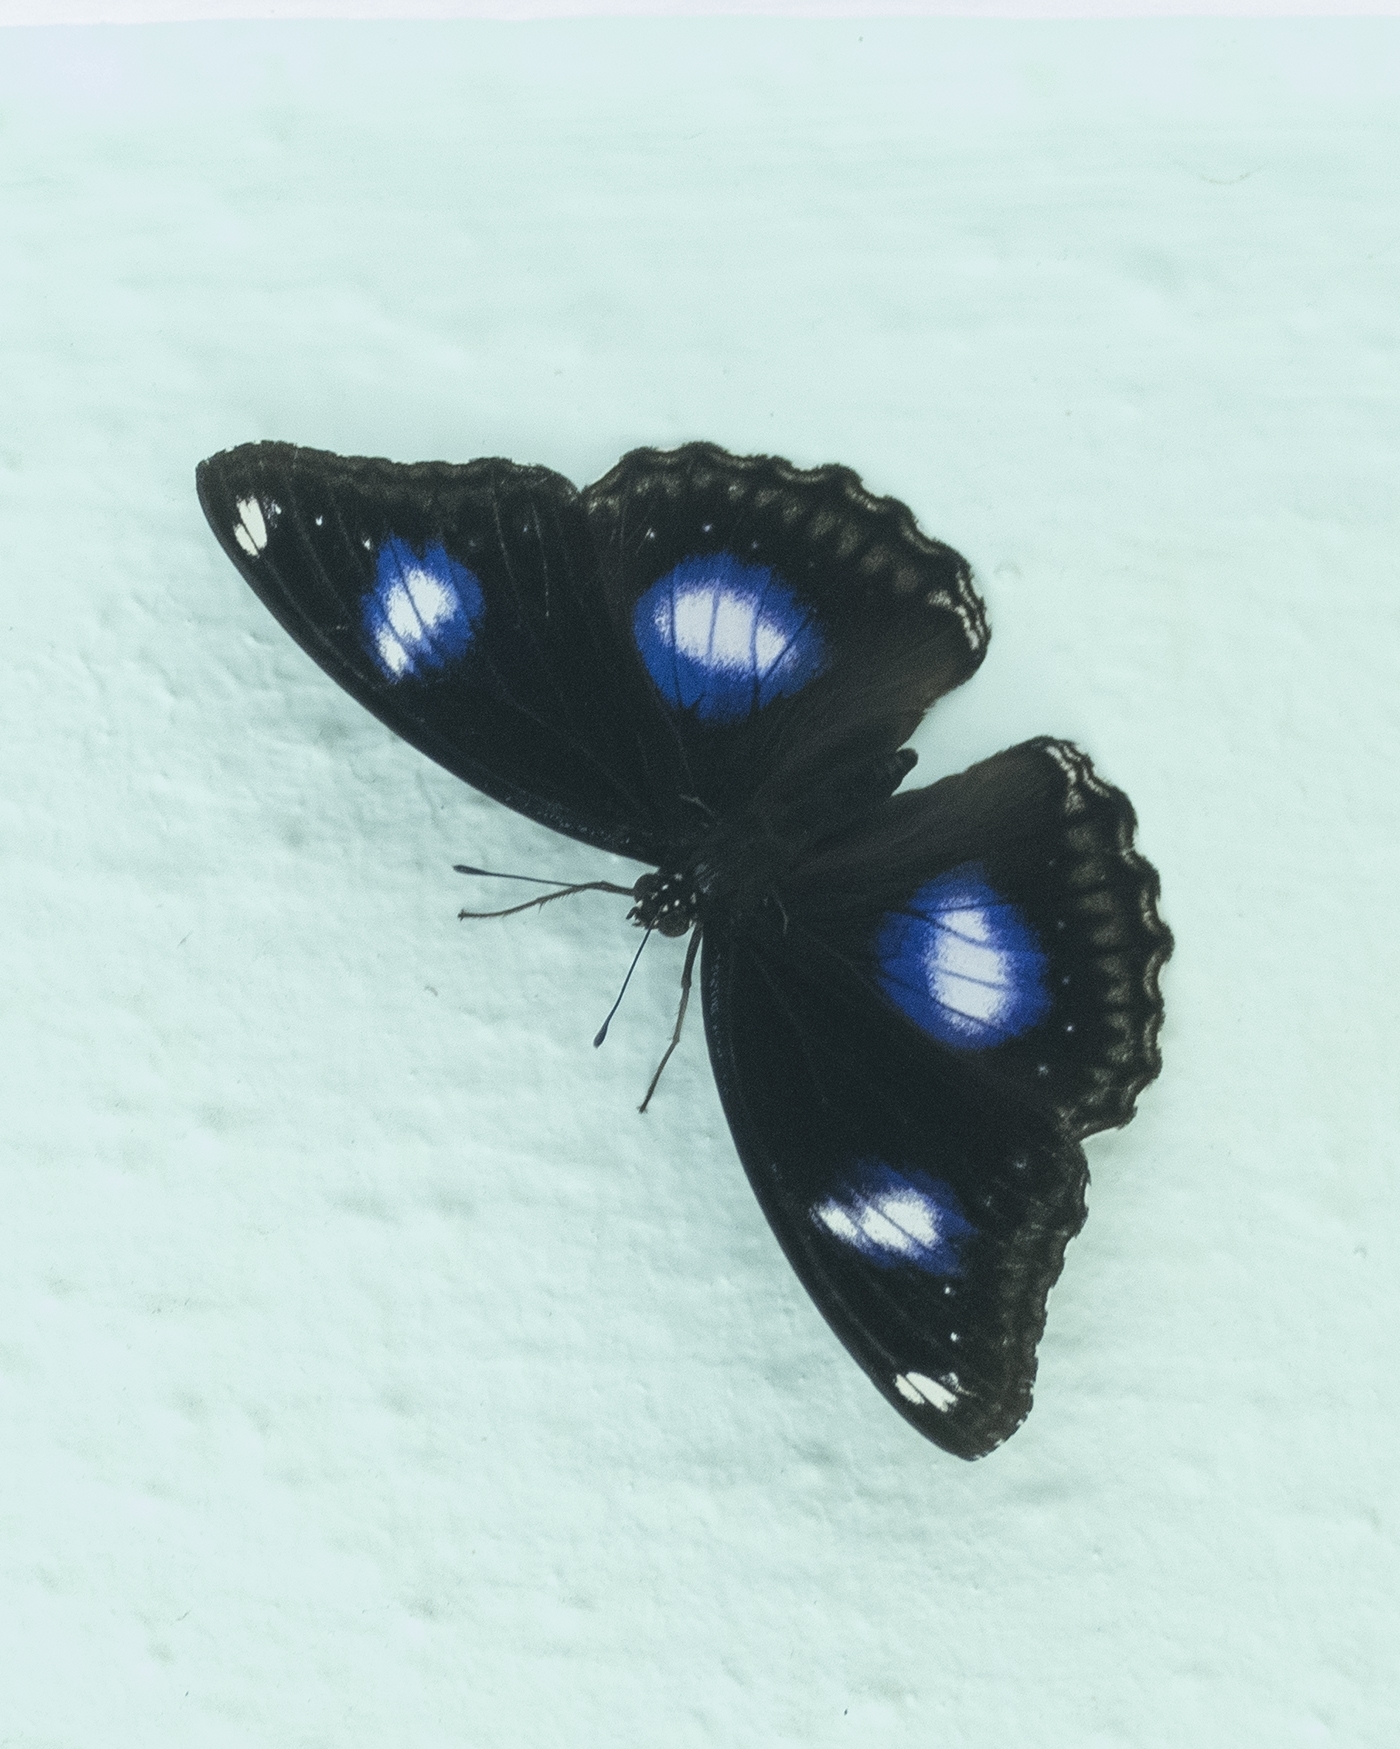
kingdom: Animalia
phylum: Arthropoda
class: Insecta
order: Lepidoptera
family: Nymphalidae
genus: Hypolimnas
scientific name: Hypolimnas bolina
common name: Great eggfly
